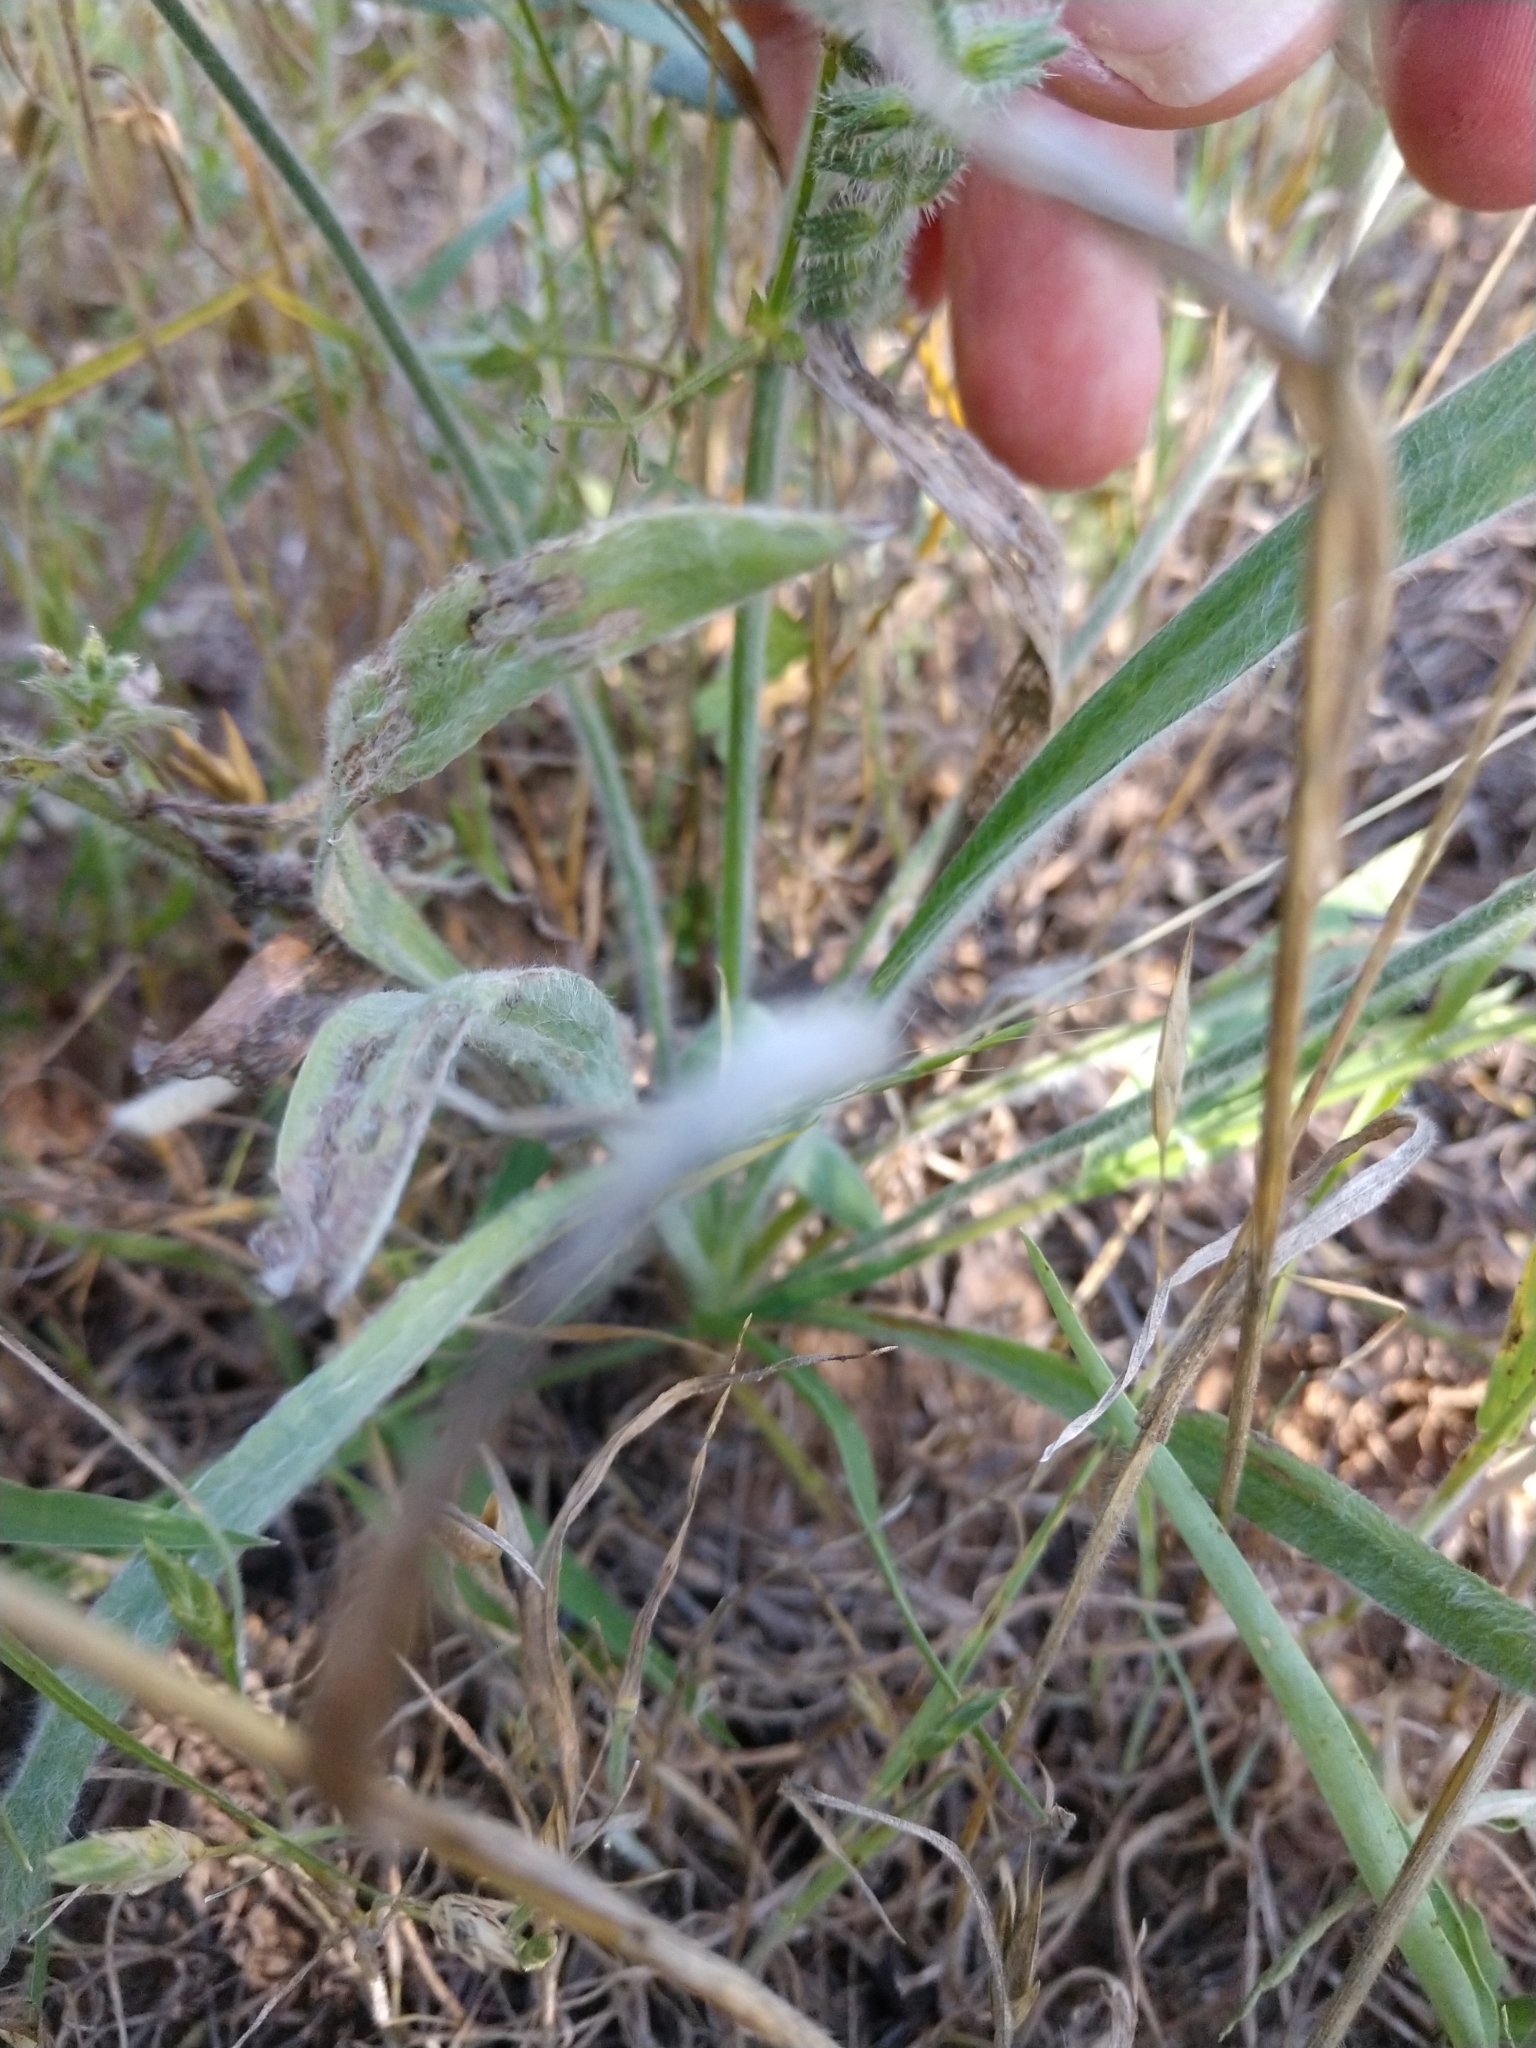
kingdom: Plantae
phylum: Tracheophyta
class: Magnoliopsida
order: Lamiales
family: Plantaginaceae
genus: Plantago
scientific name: Plantago wrightiana
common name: Wright's plantain
